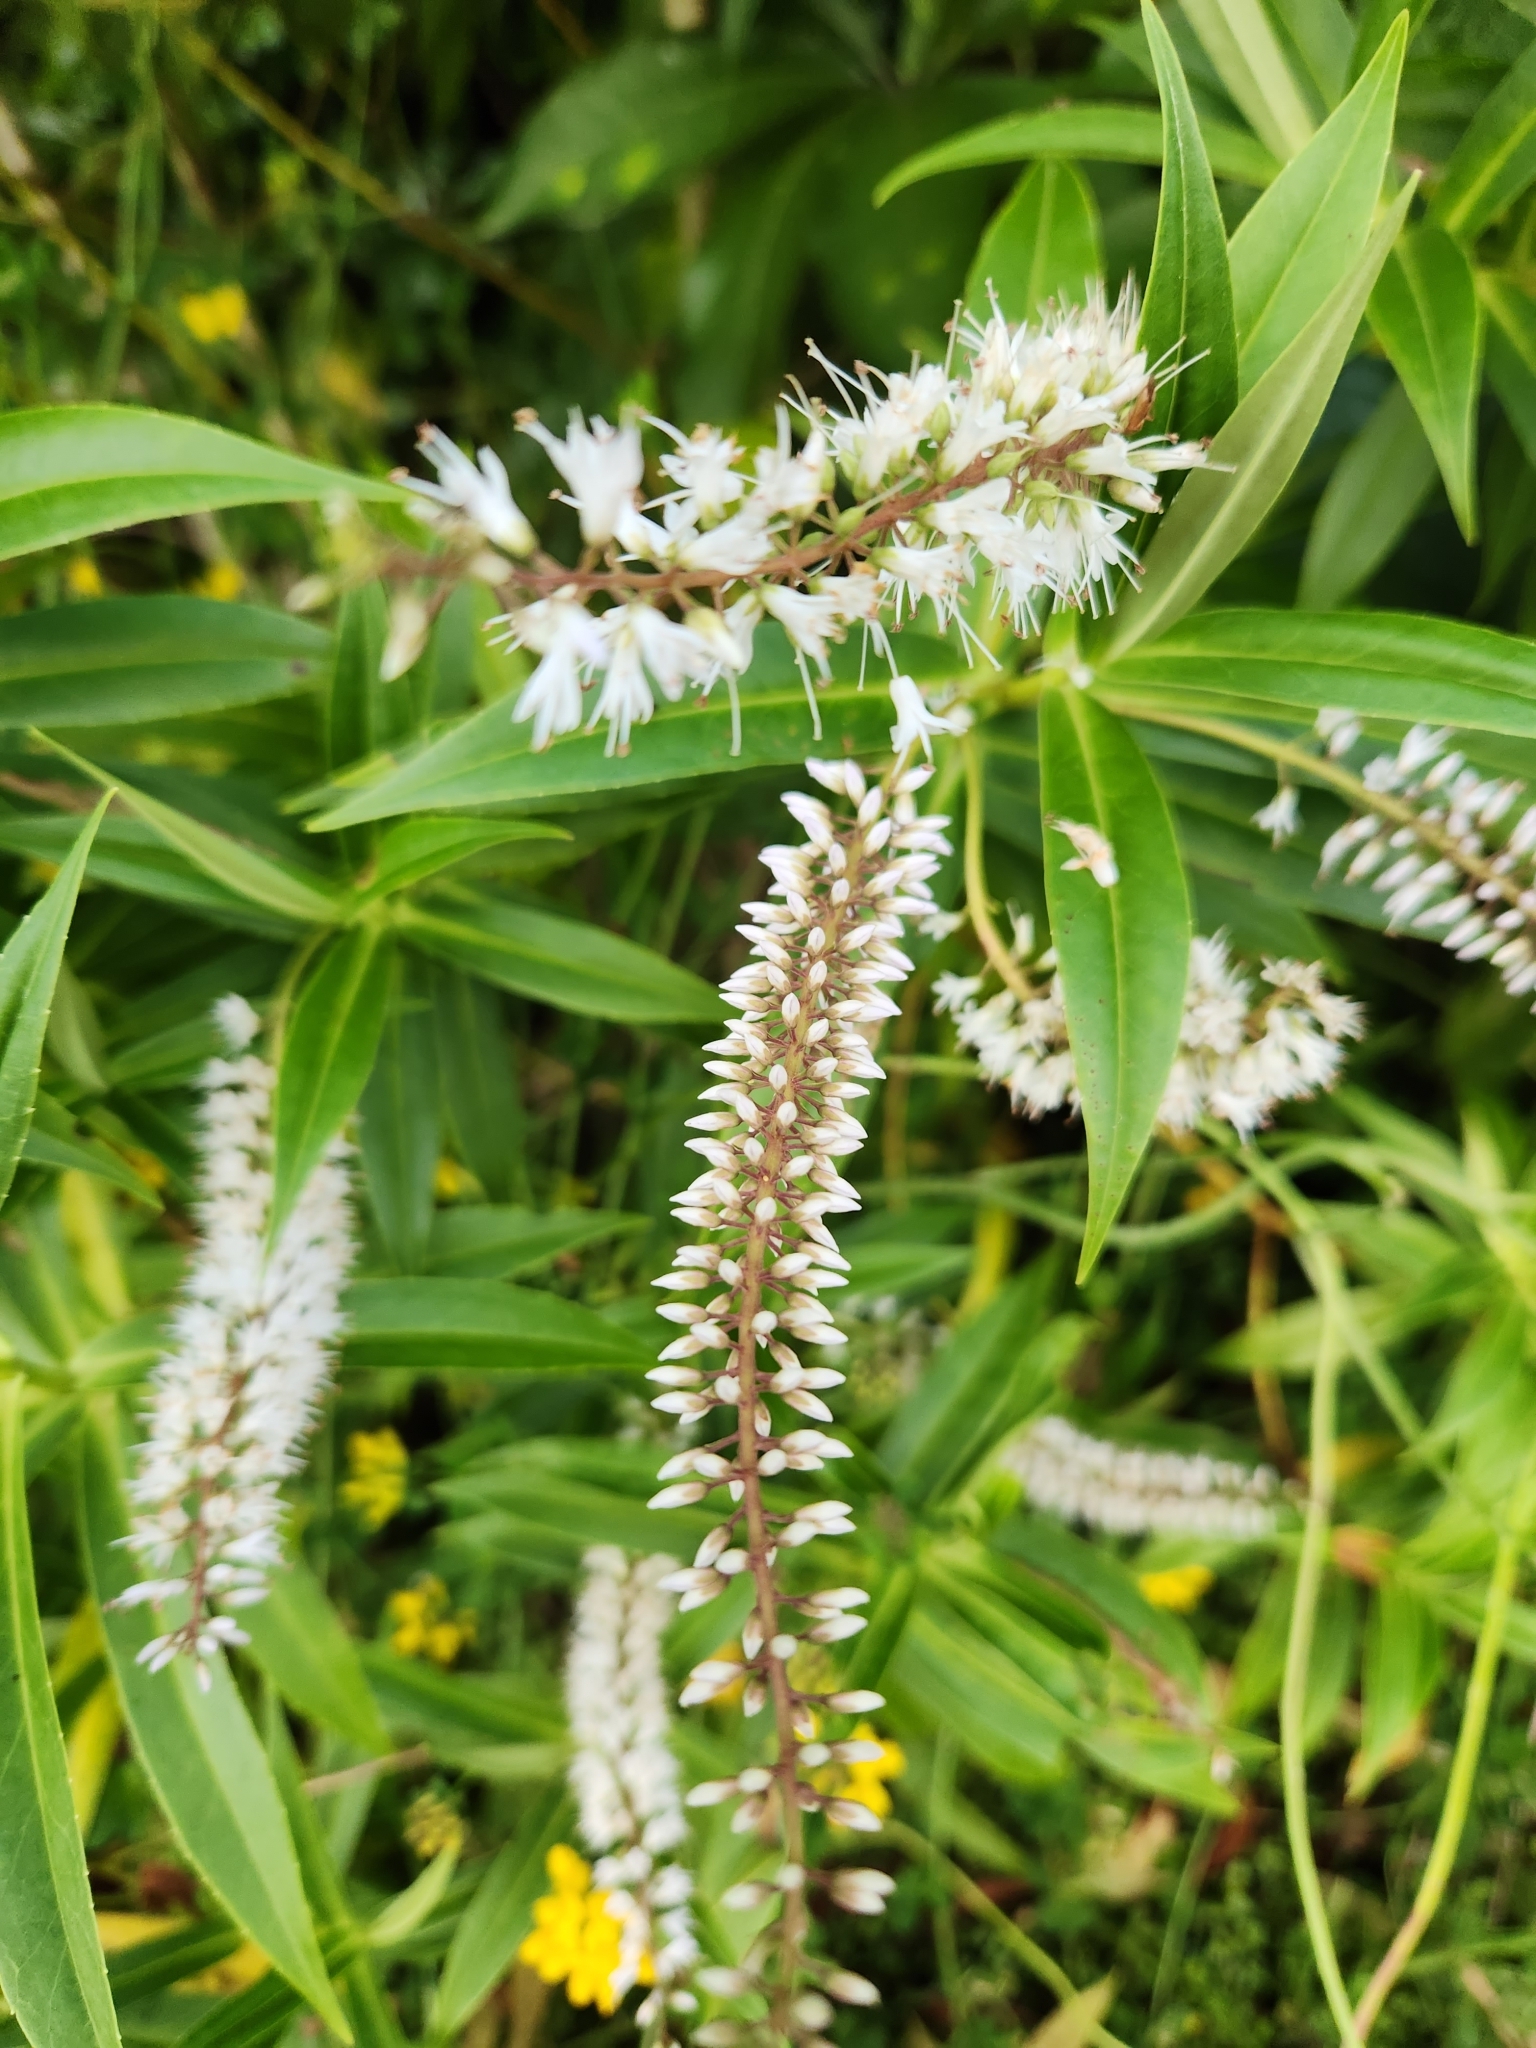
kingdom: Plantae
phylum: Tracheophyta
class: Magnoliopsida
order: Lamiales
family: Plantaginaceae
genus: Veronica
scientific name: Veronica salicifolia
